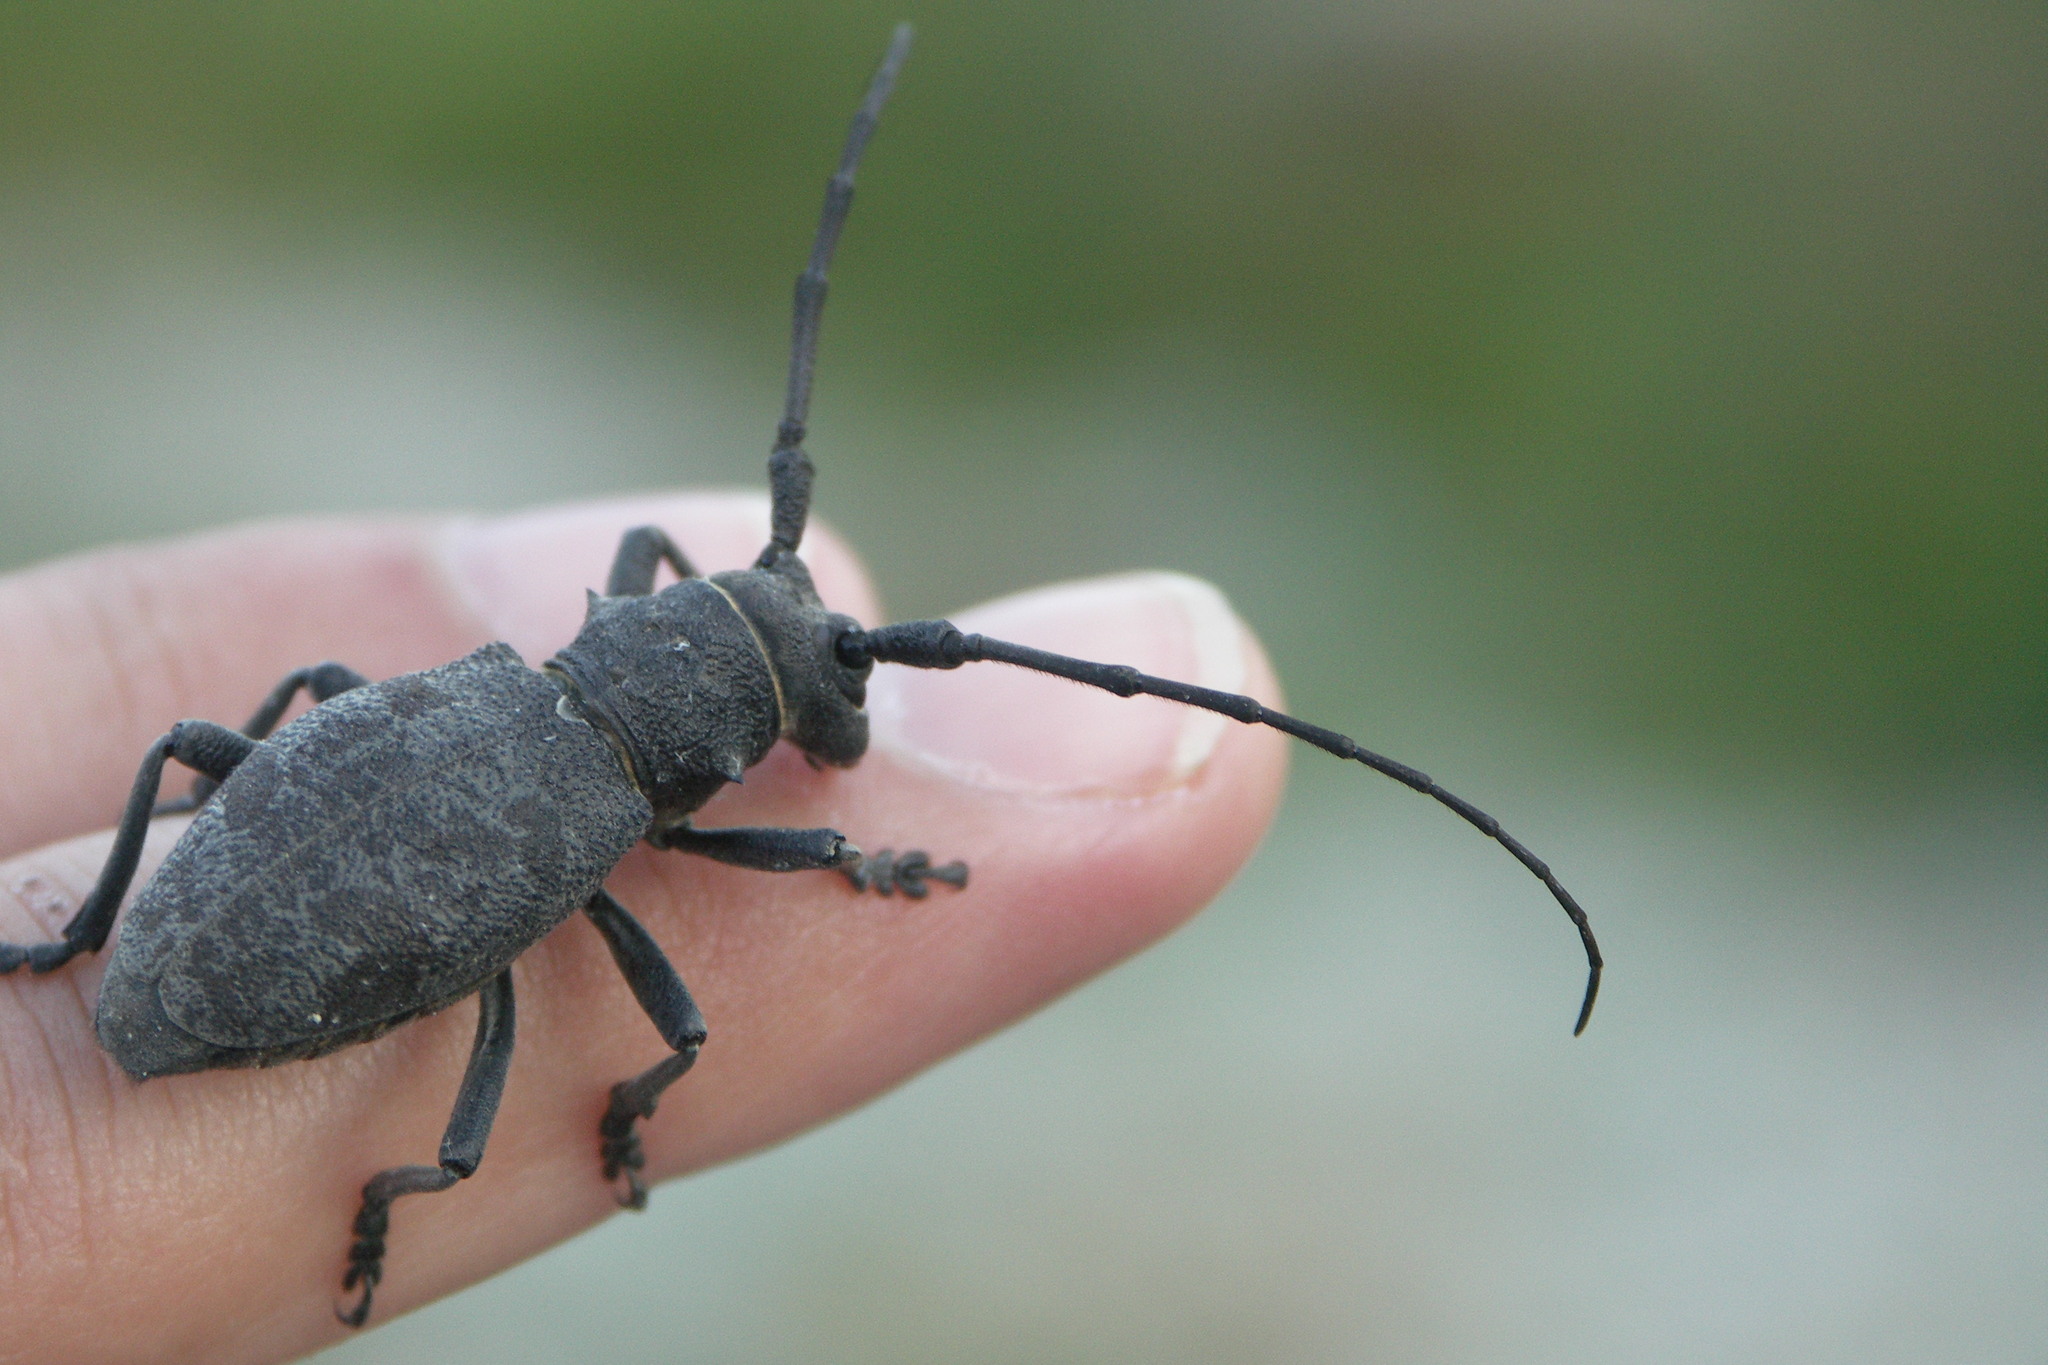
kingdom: Animalia
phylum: Arthropoda
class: Insecta
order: Coleoptera
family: Cerambycidae
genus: Morimus
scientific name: Morimus asper
